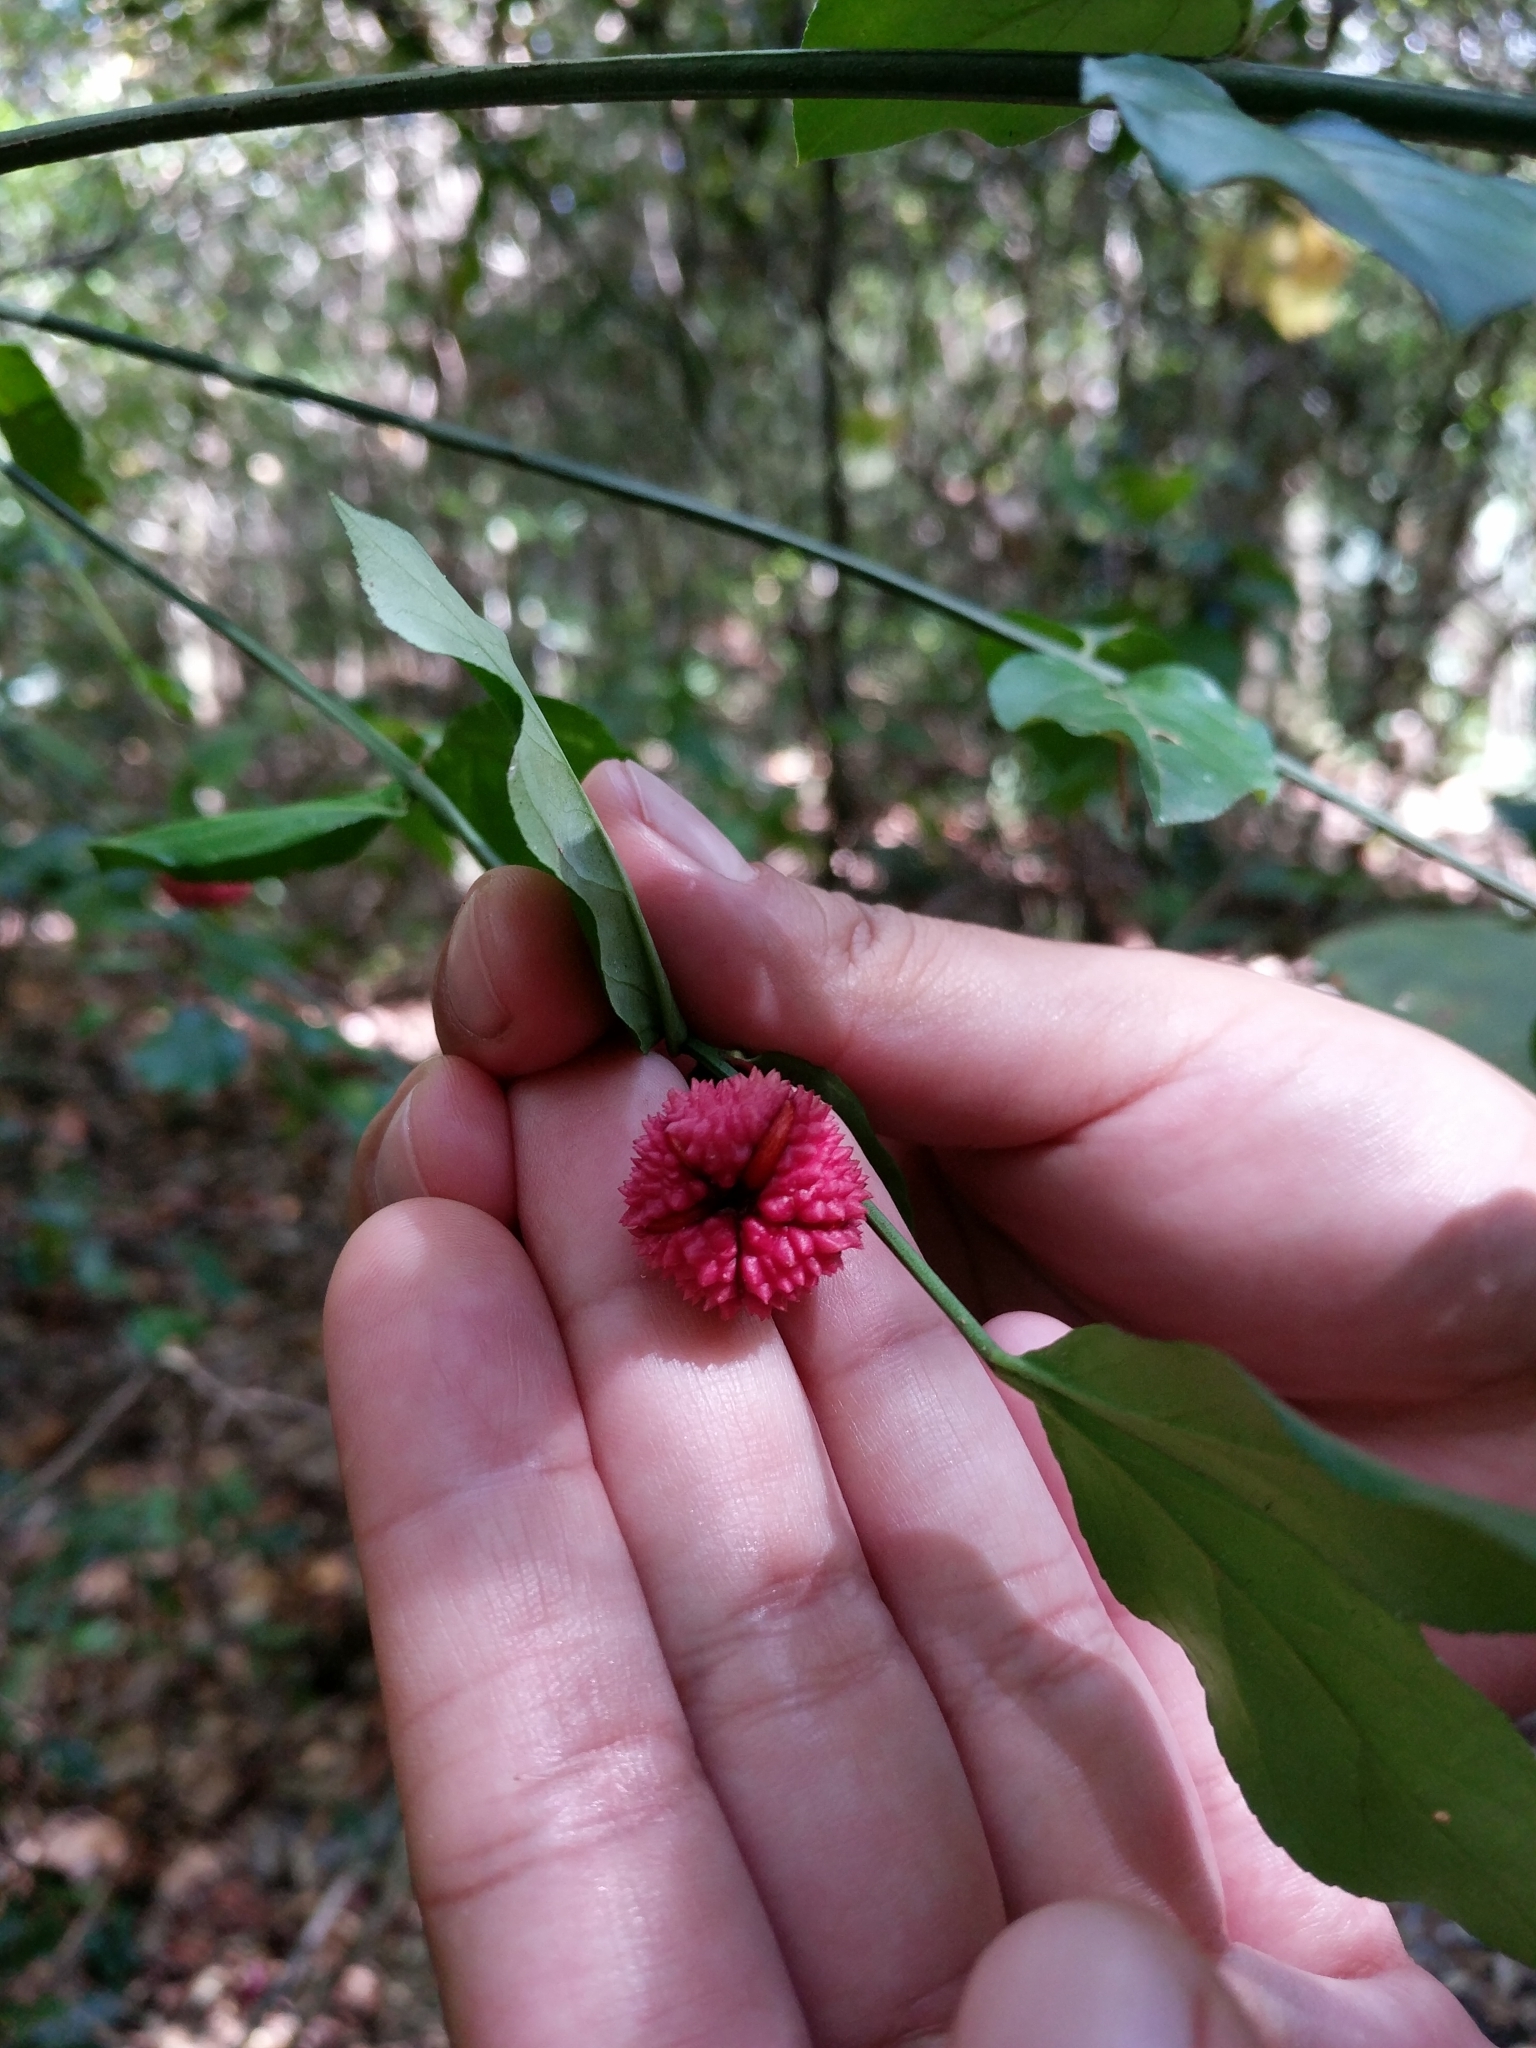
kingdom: Plantae
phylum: Tracheophyta
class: Magnoliopsida
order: Celastrales
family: Celastraceae
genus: Euonymus
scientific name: Euonymus americanus
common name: Bursting-heart
